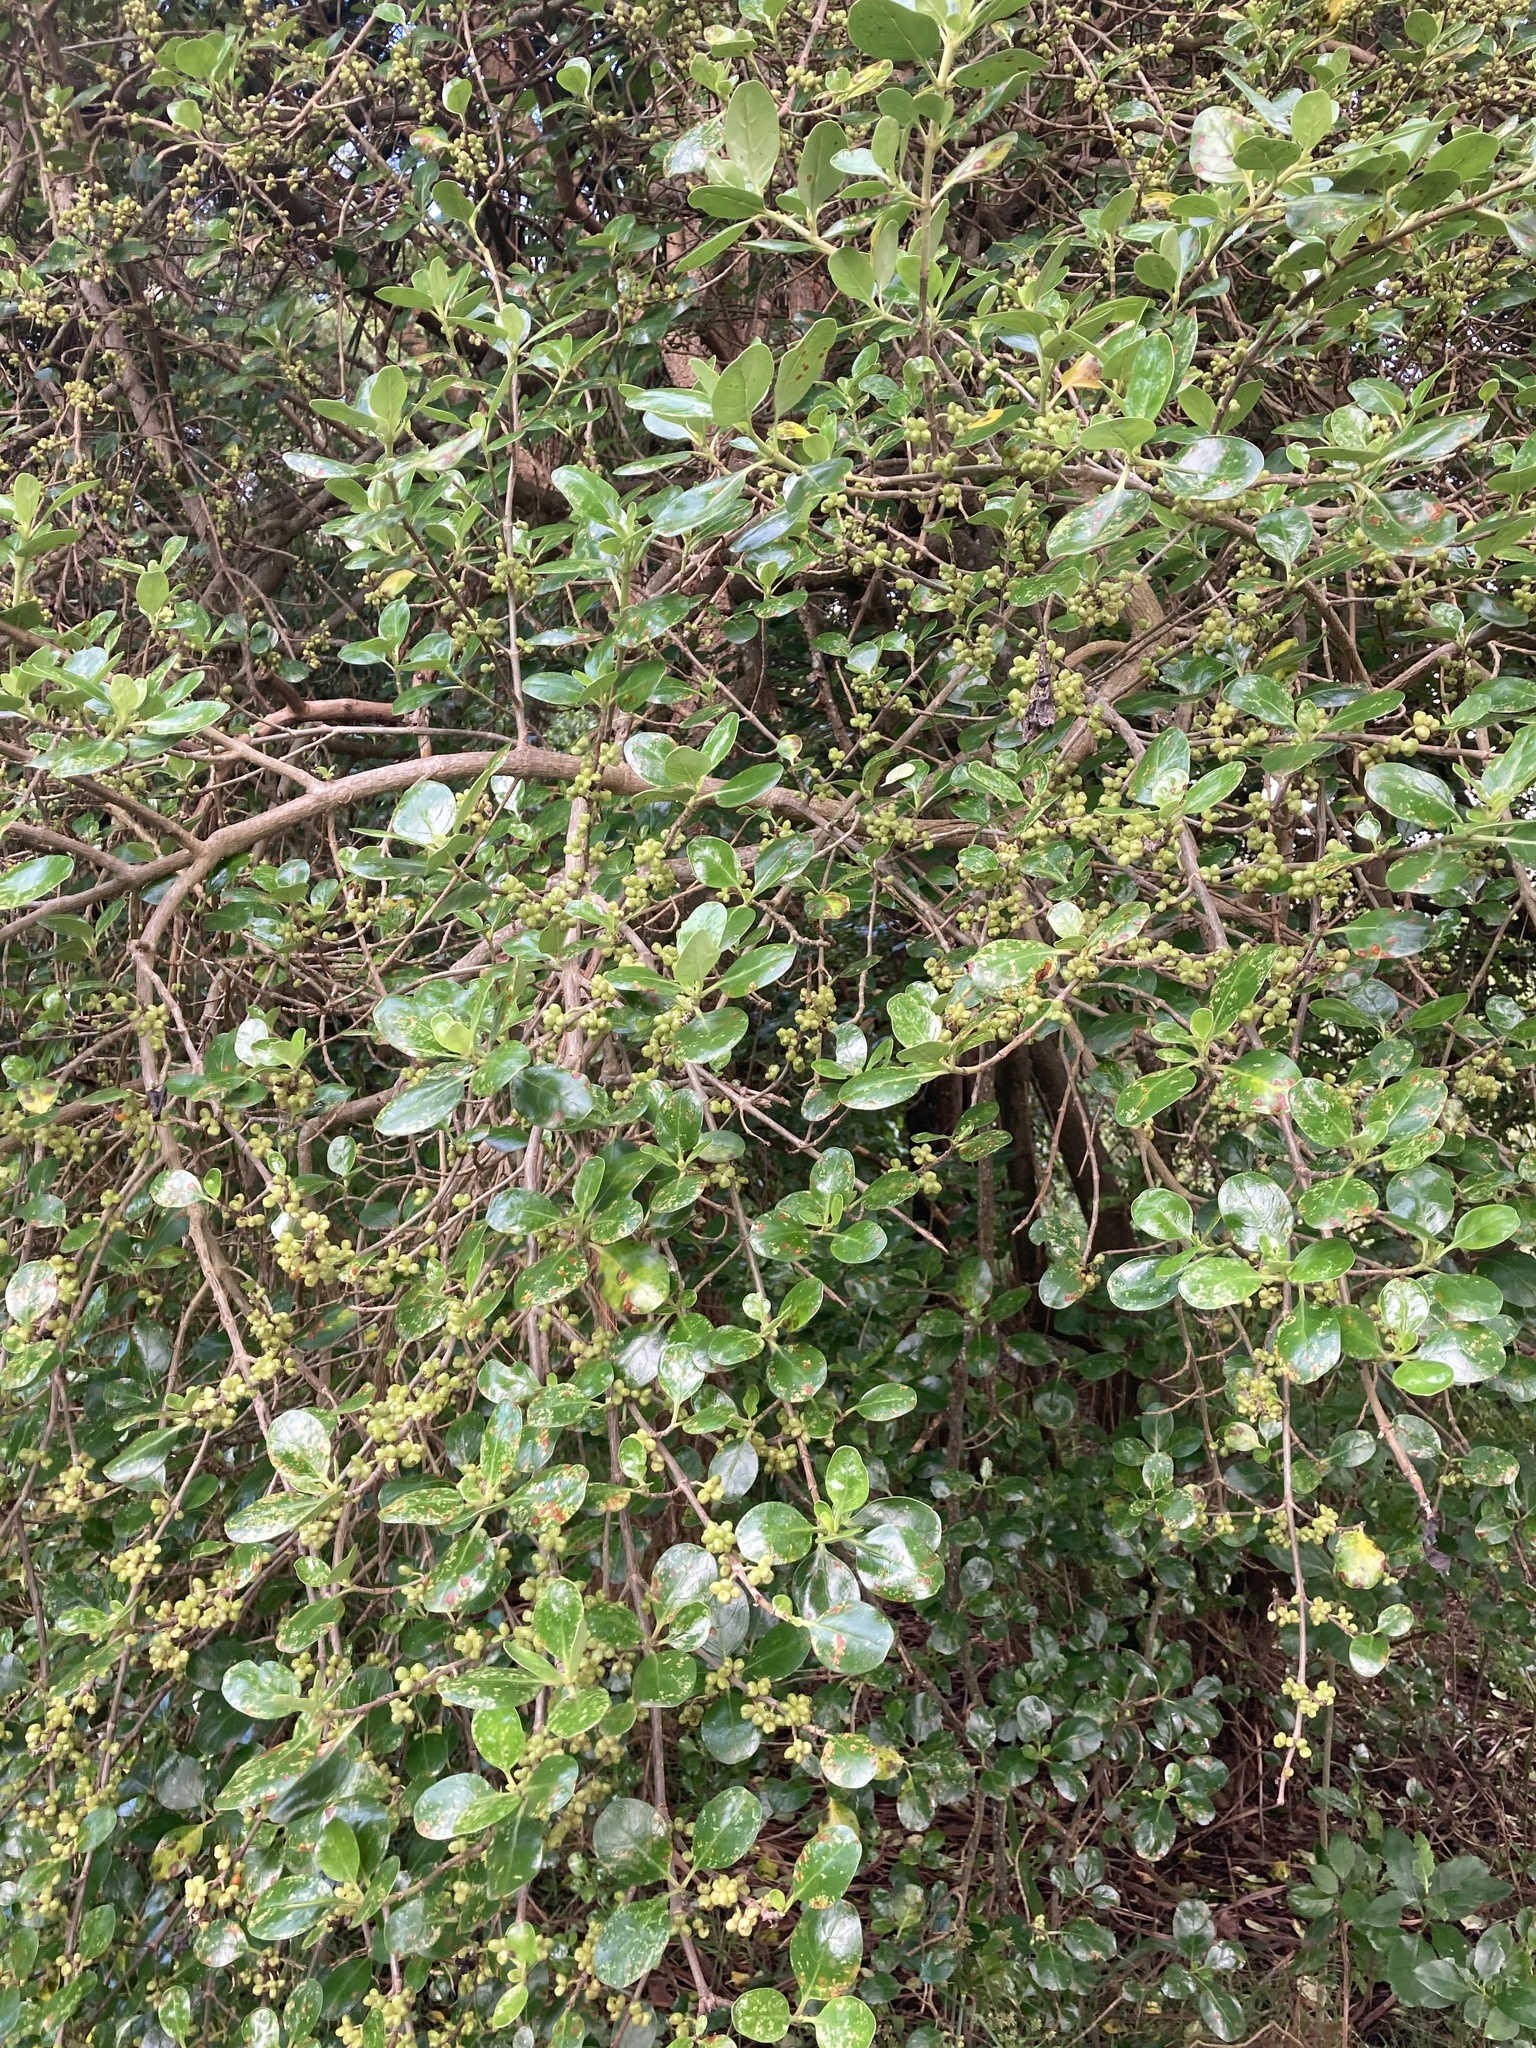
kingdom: Plantae
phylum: Tracheophyta
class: Magnoliopsida
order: Gentianales
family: Rubiaceae
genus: Coprosma
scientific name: Coprosma repens
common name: Tree bedstraw
